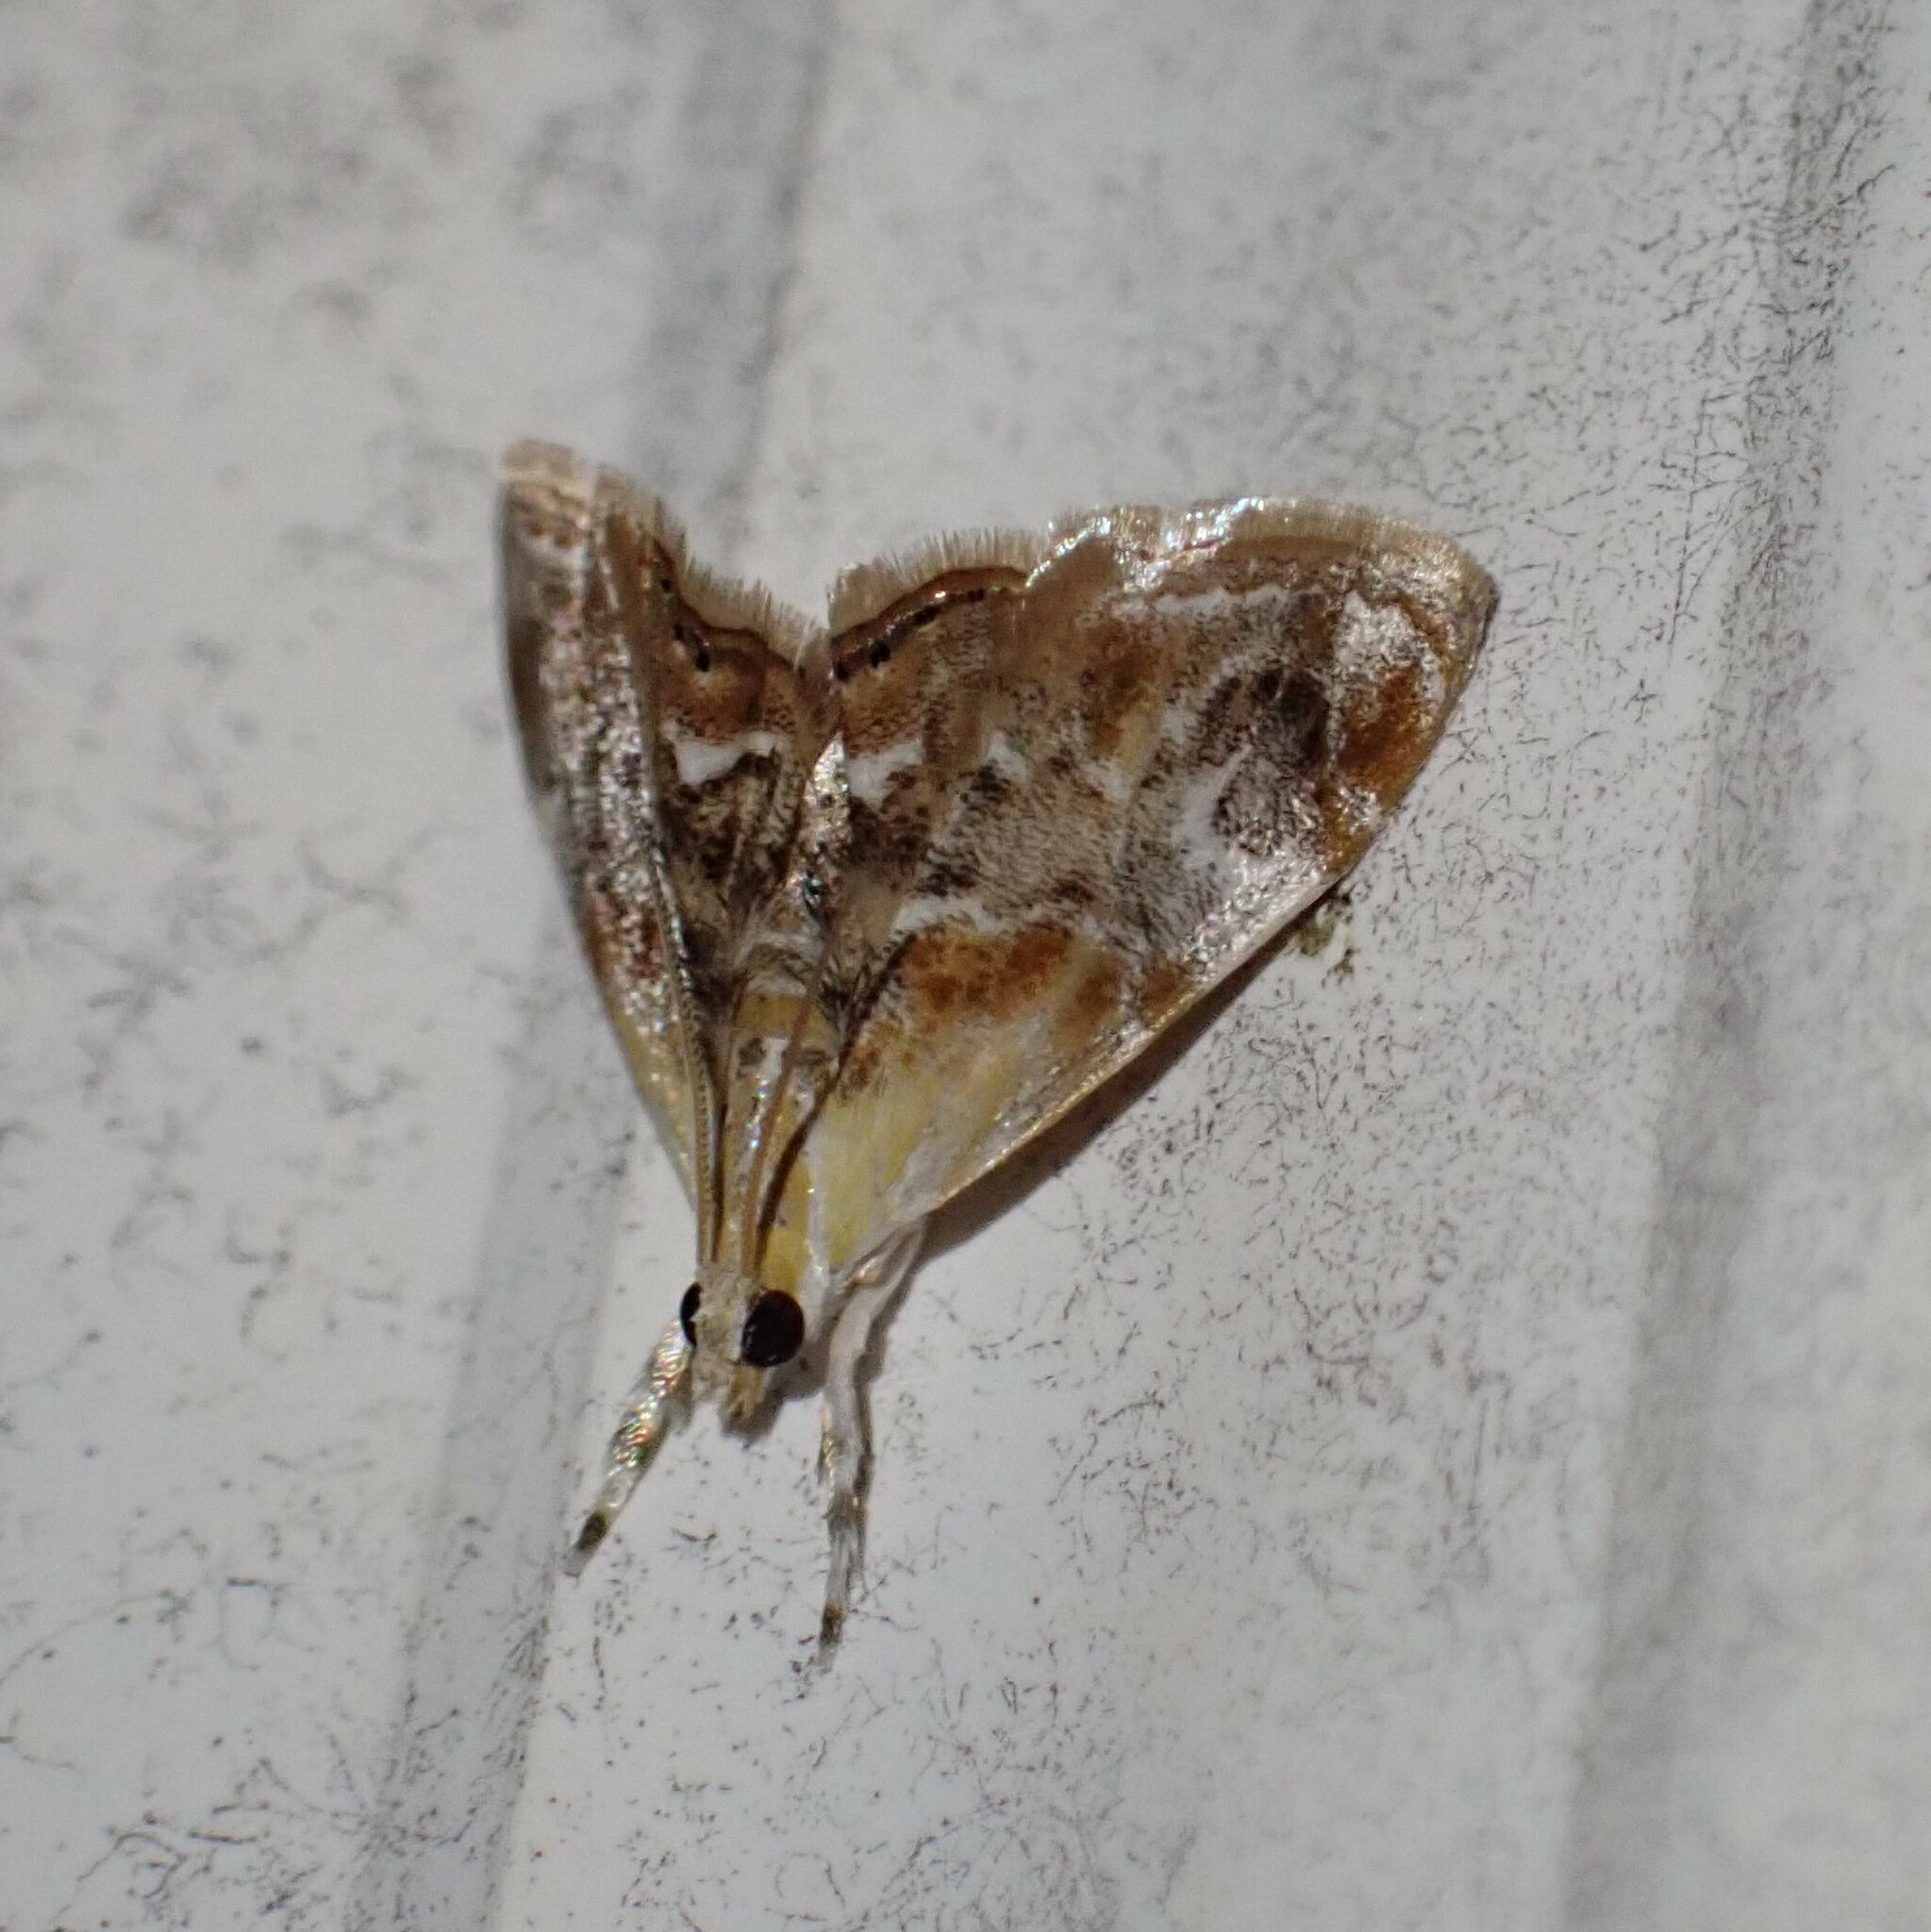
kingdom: Animalia
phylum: Arthropoda
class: Insecta
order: Lepidoptera
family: Crambidae
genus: Dicymolomia
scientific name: Dicymolomia julianalis
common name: Julia's dicymolomia moth
